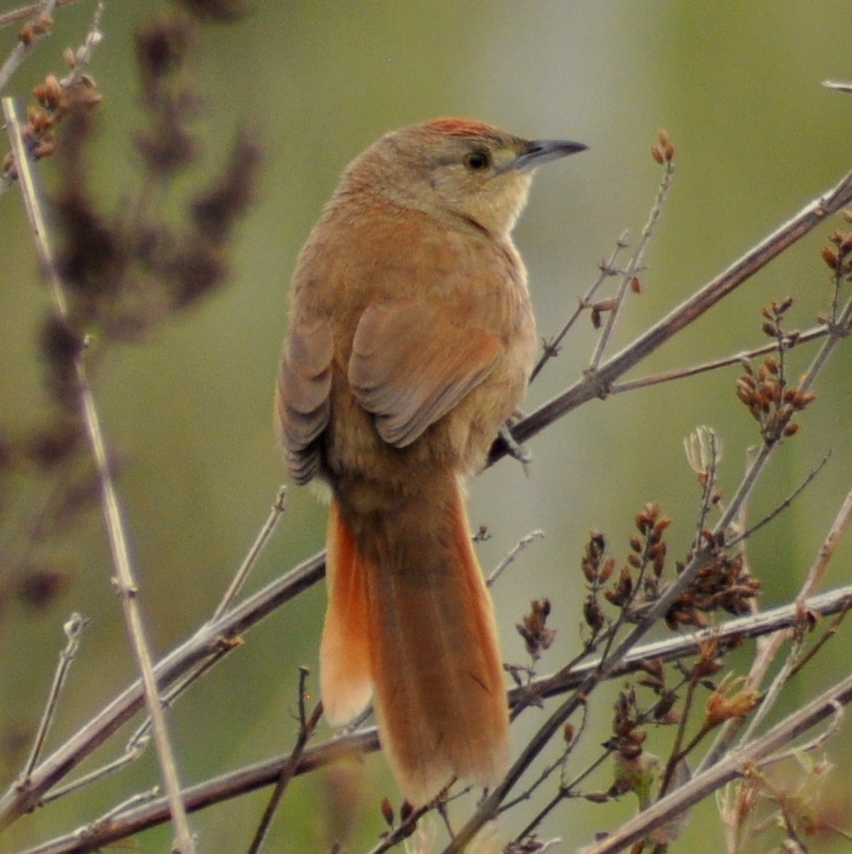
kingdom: Animalia
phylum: Chordata
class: Aves
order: Passeriformes
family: Furnariidae
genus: Phacellodomus
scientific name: Phacellodomus striaticollis
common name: Freckle-breasted thornbird
